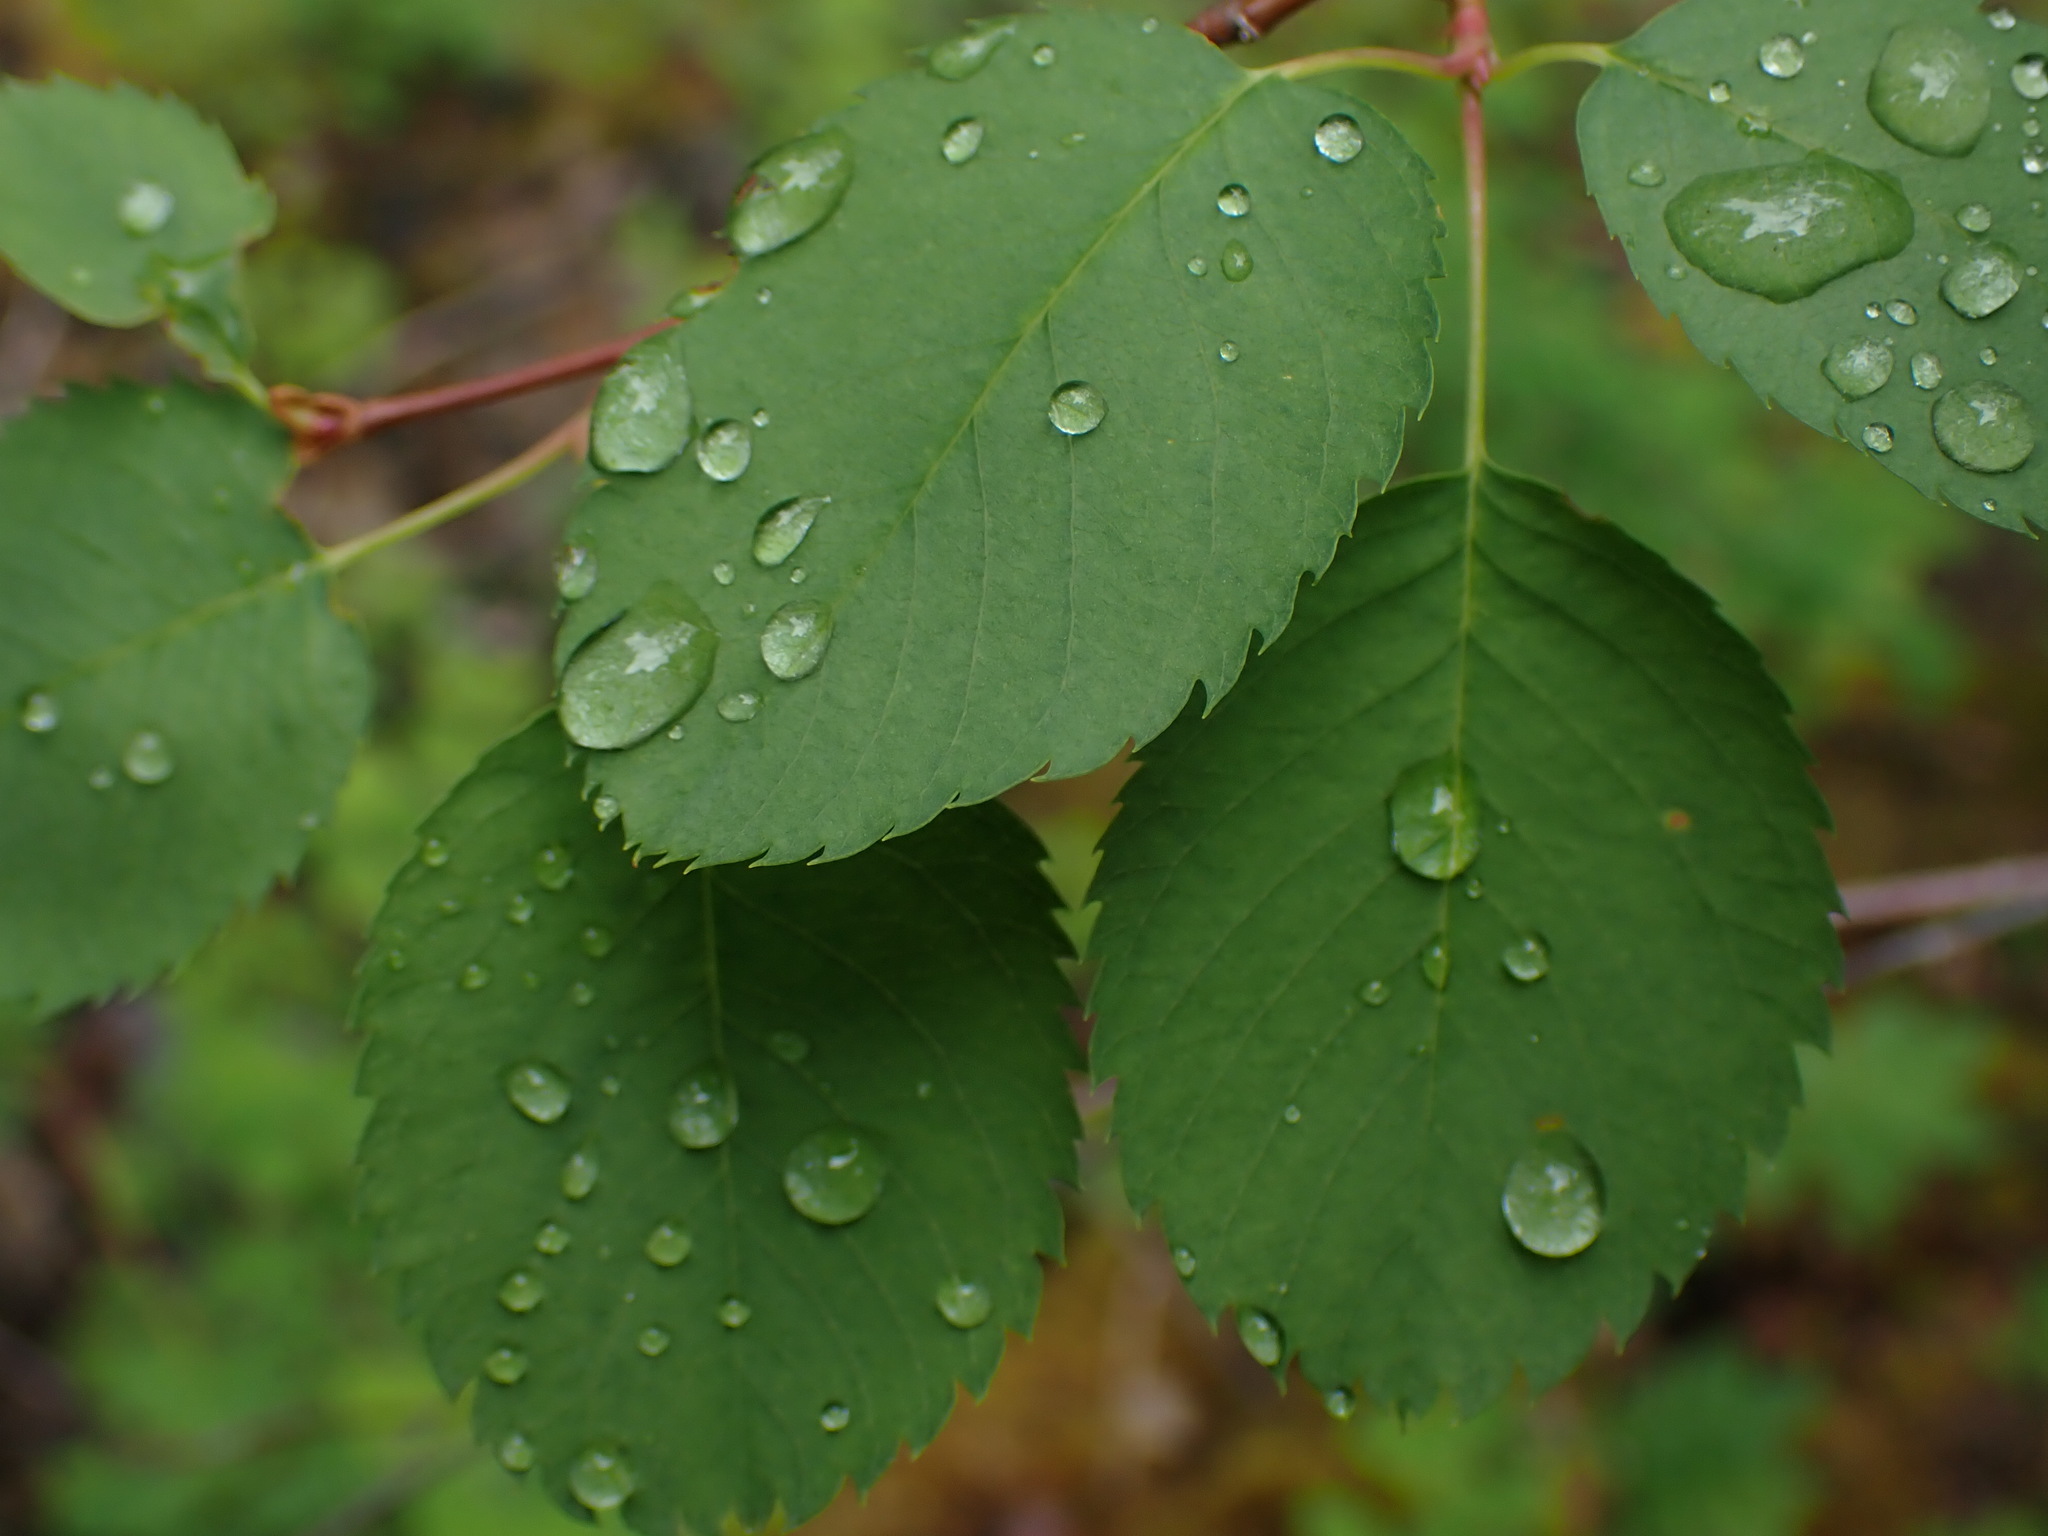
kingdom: Plantae
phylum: Tracheophyta
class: Magnoliopsida
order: Rosales
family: Rosaceae
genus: Amelanchier
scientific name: Amelanchier alnifolia
